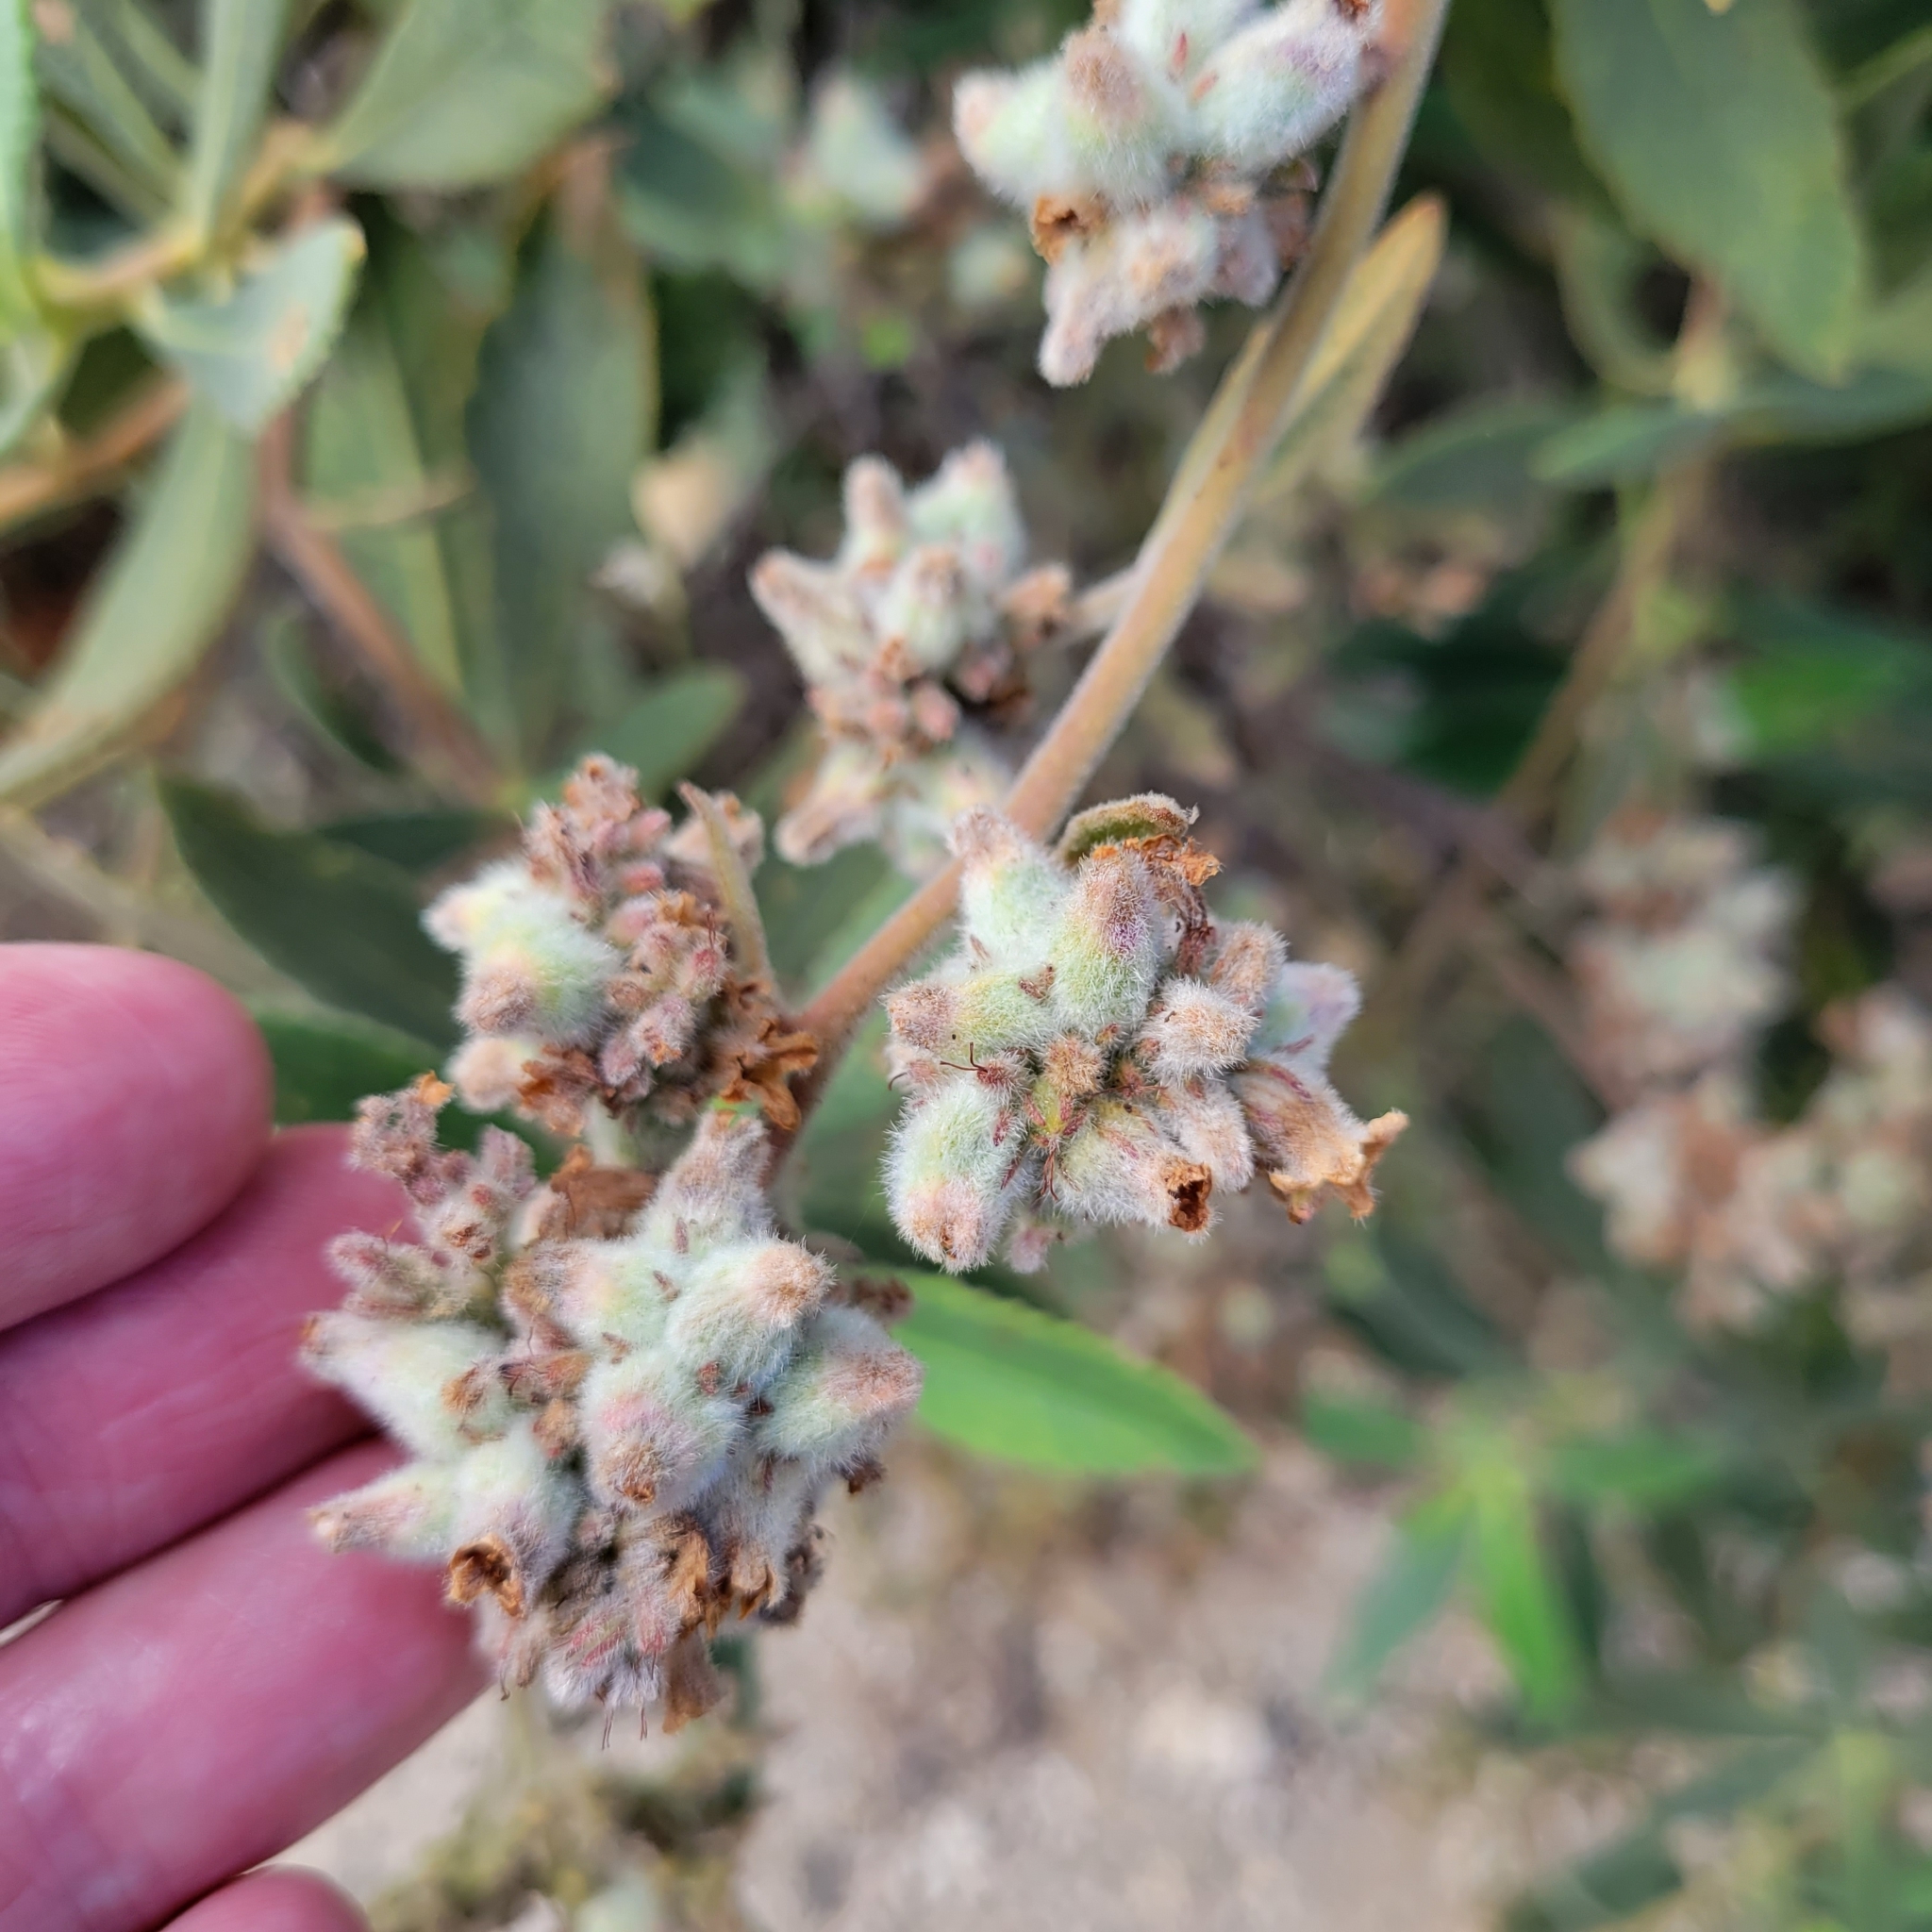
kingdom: Plantae
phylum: Tracheophyta
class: Magnoliopsida
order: Boraginales
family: Namaceae
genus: Eriodictyon
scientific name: Eriodictyon crassifolium
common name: Thick-leaf yerba-santa
